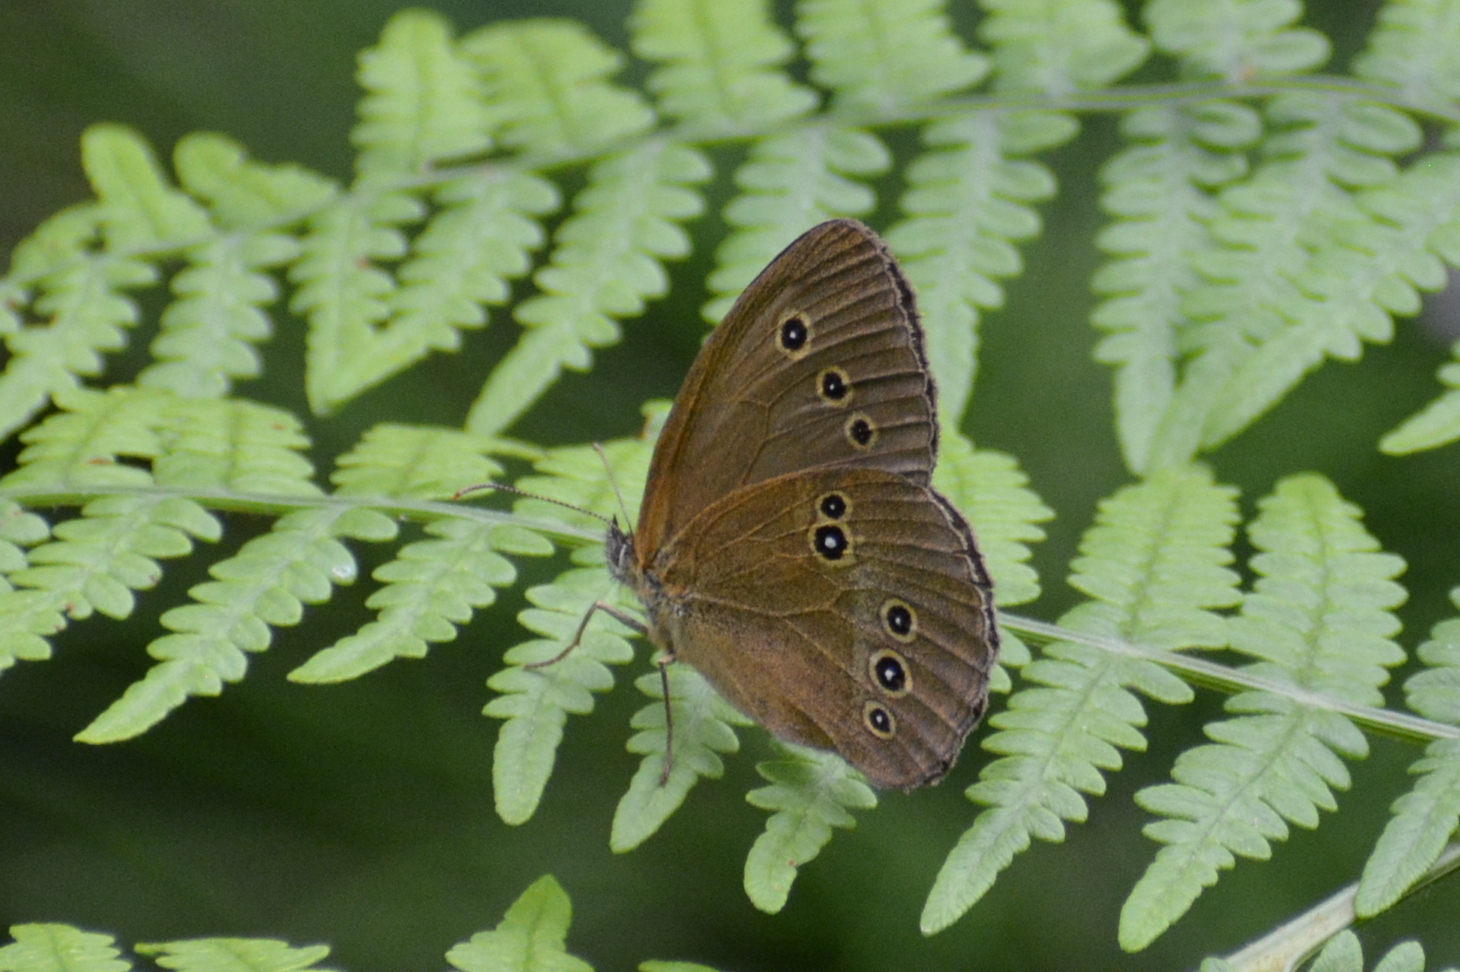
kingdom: Animalia
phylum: Arthropoda
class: Insecta
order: Lepidoptera
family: Nymphalidae
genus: Aphantopus
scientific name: Aphantopus hyperantus
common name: Ringlet
